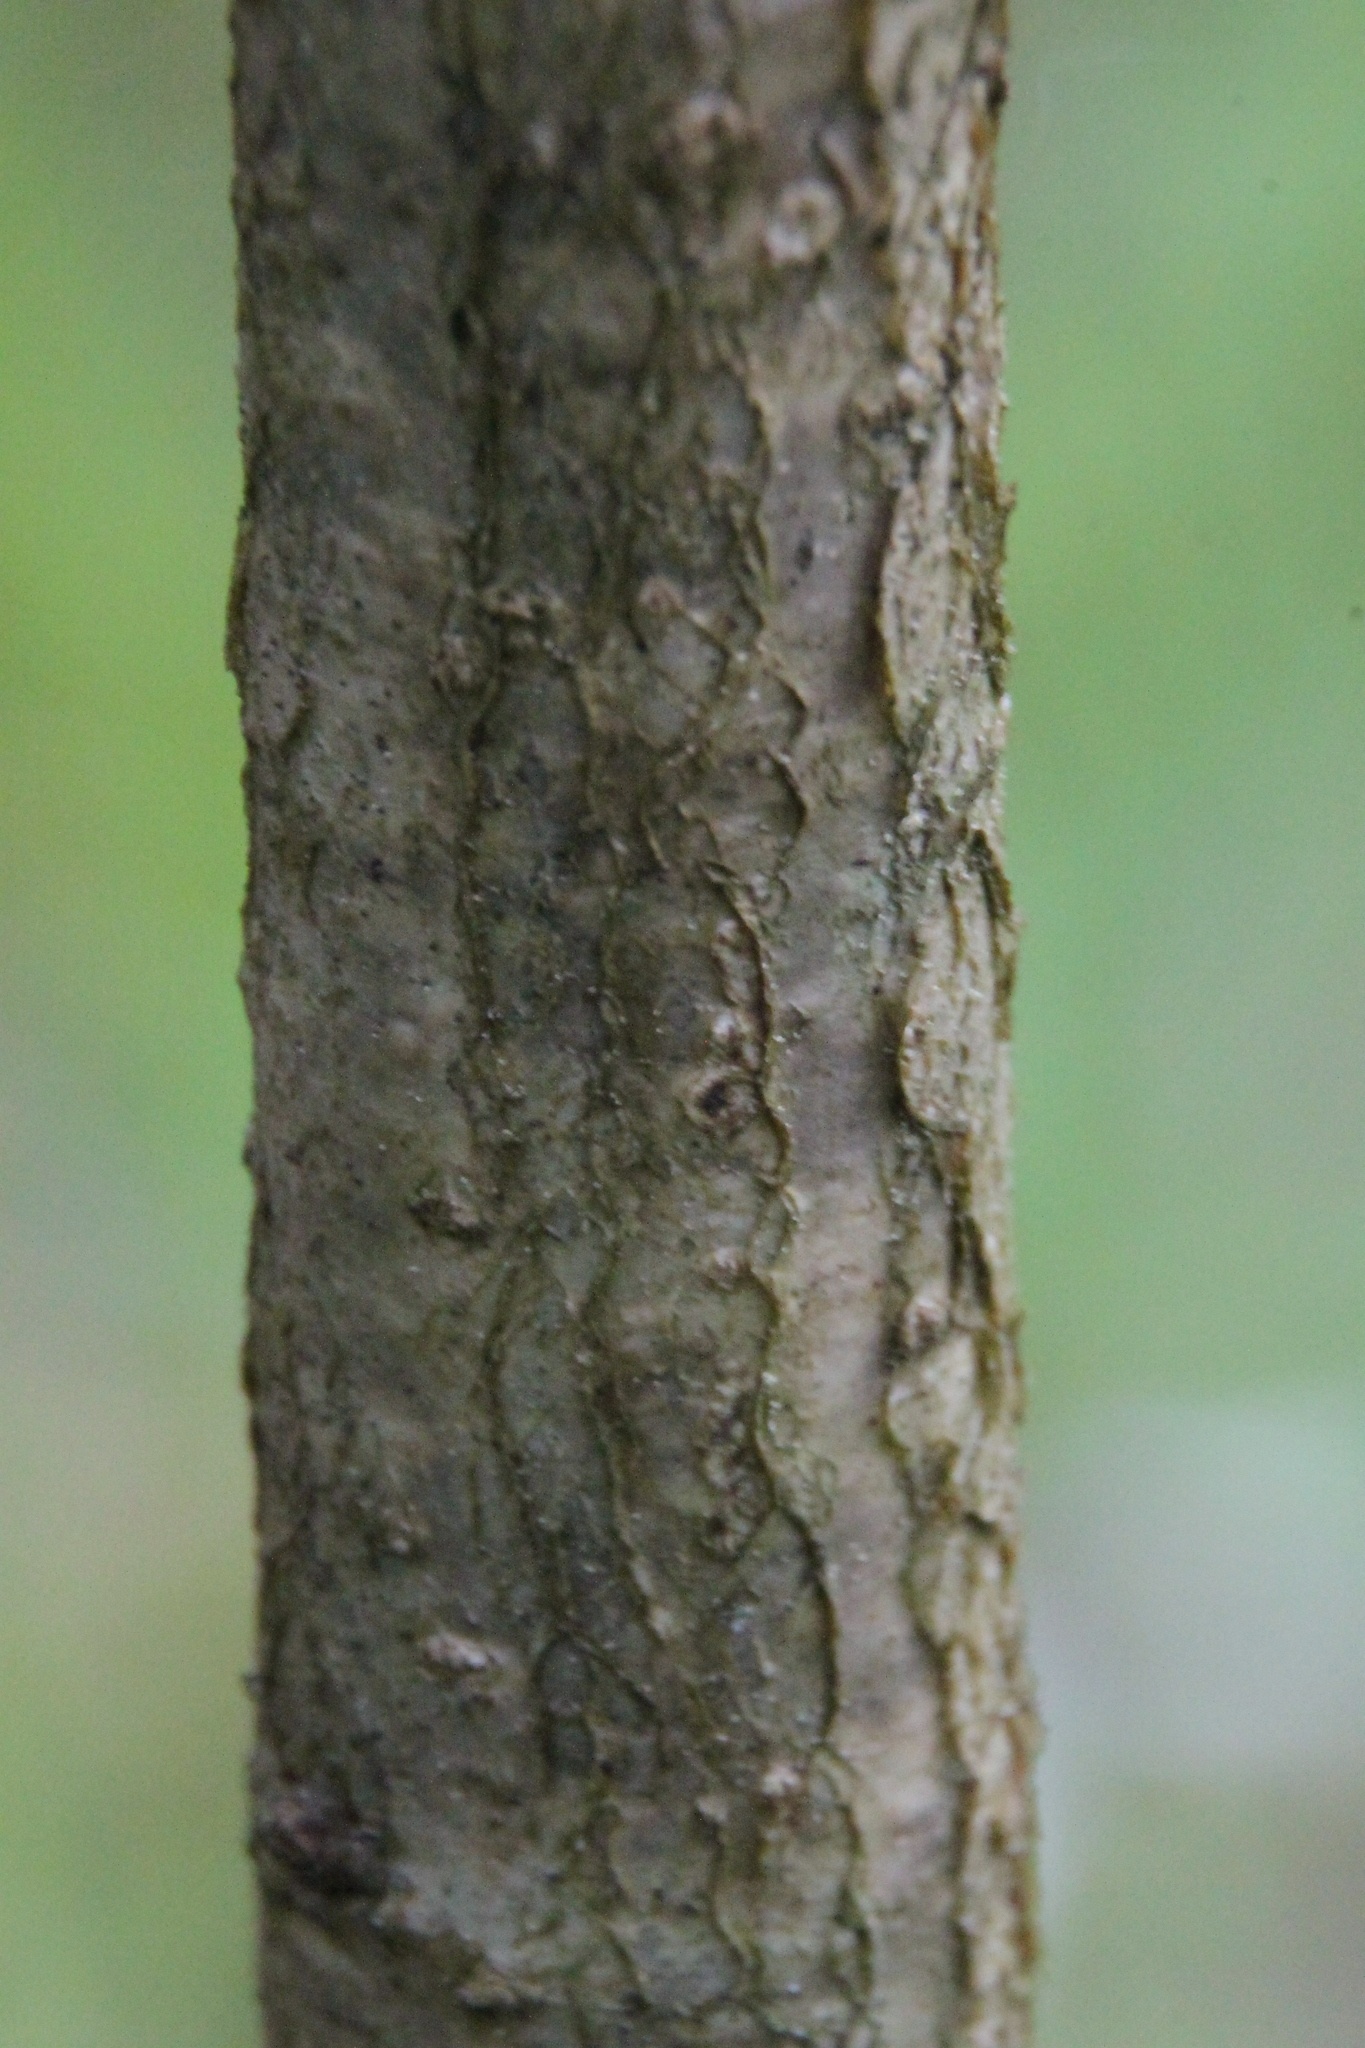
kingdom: Plantae
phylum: Tracheophyta
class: Magnoliopsida
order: Fagales
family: Fagaceae
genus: Quercus
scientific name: Quercus robur
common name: Pedunculate oak
